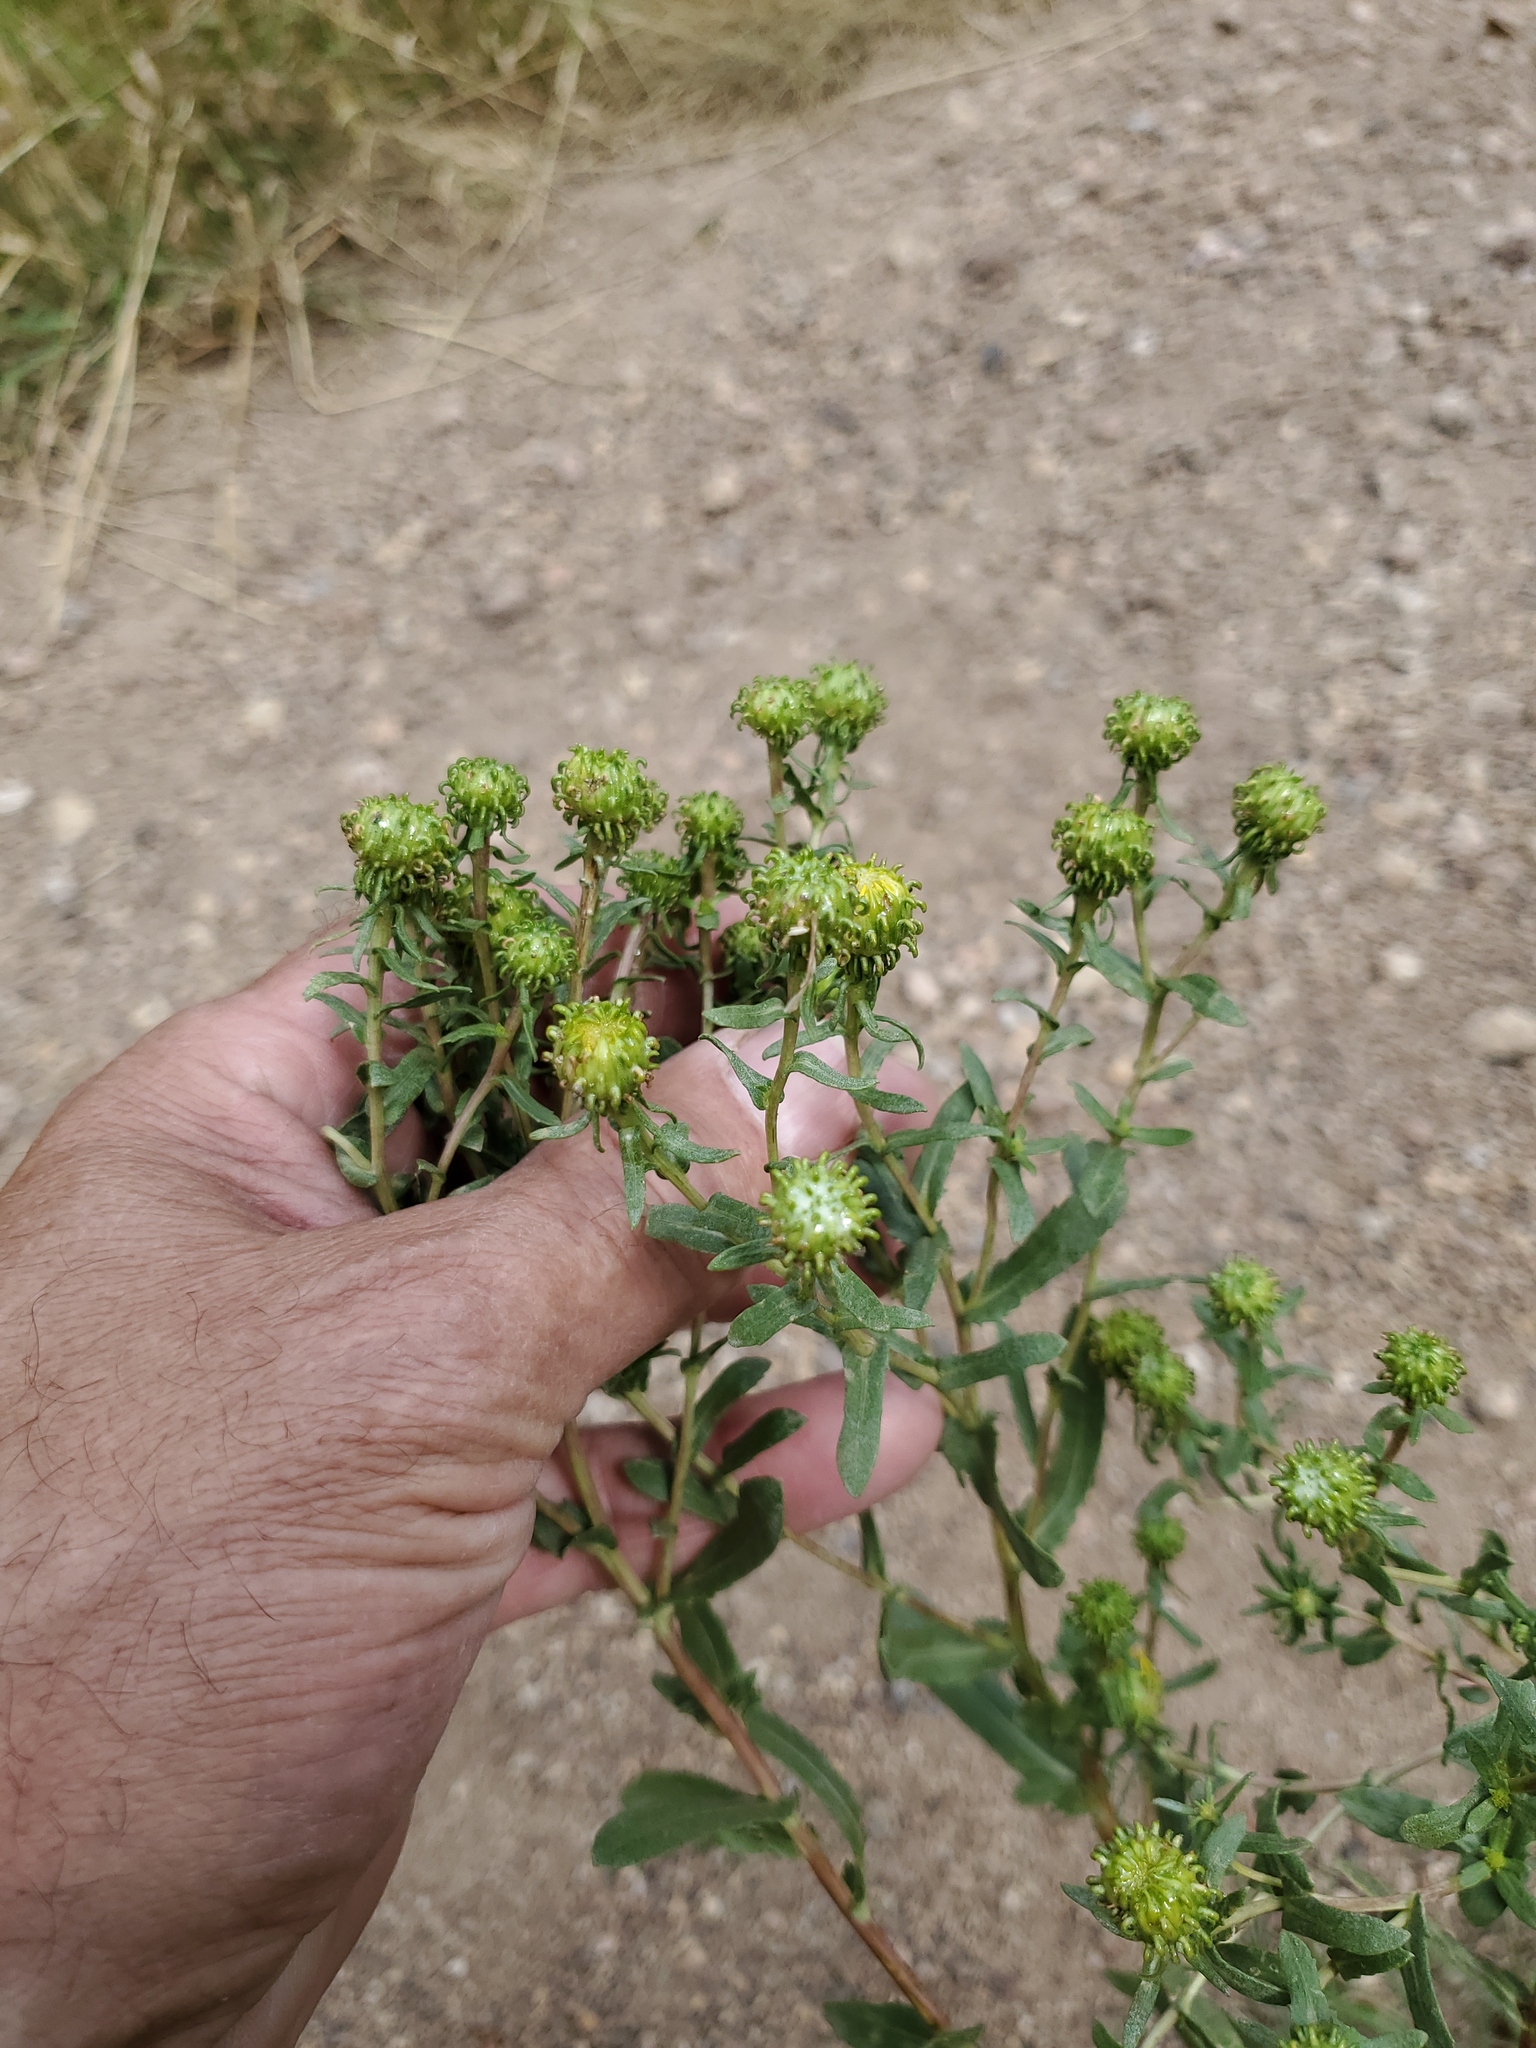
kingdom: Plantae
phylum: Tracheophyta
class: Magnoliopsida
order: Asterales
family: Asteraceae
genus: Grindelia
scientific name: Grindelia squarrosa
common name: Curly-cup gumweed
